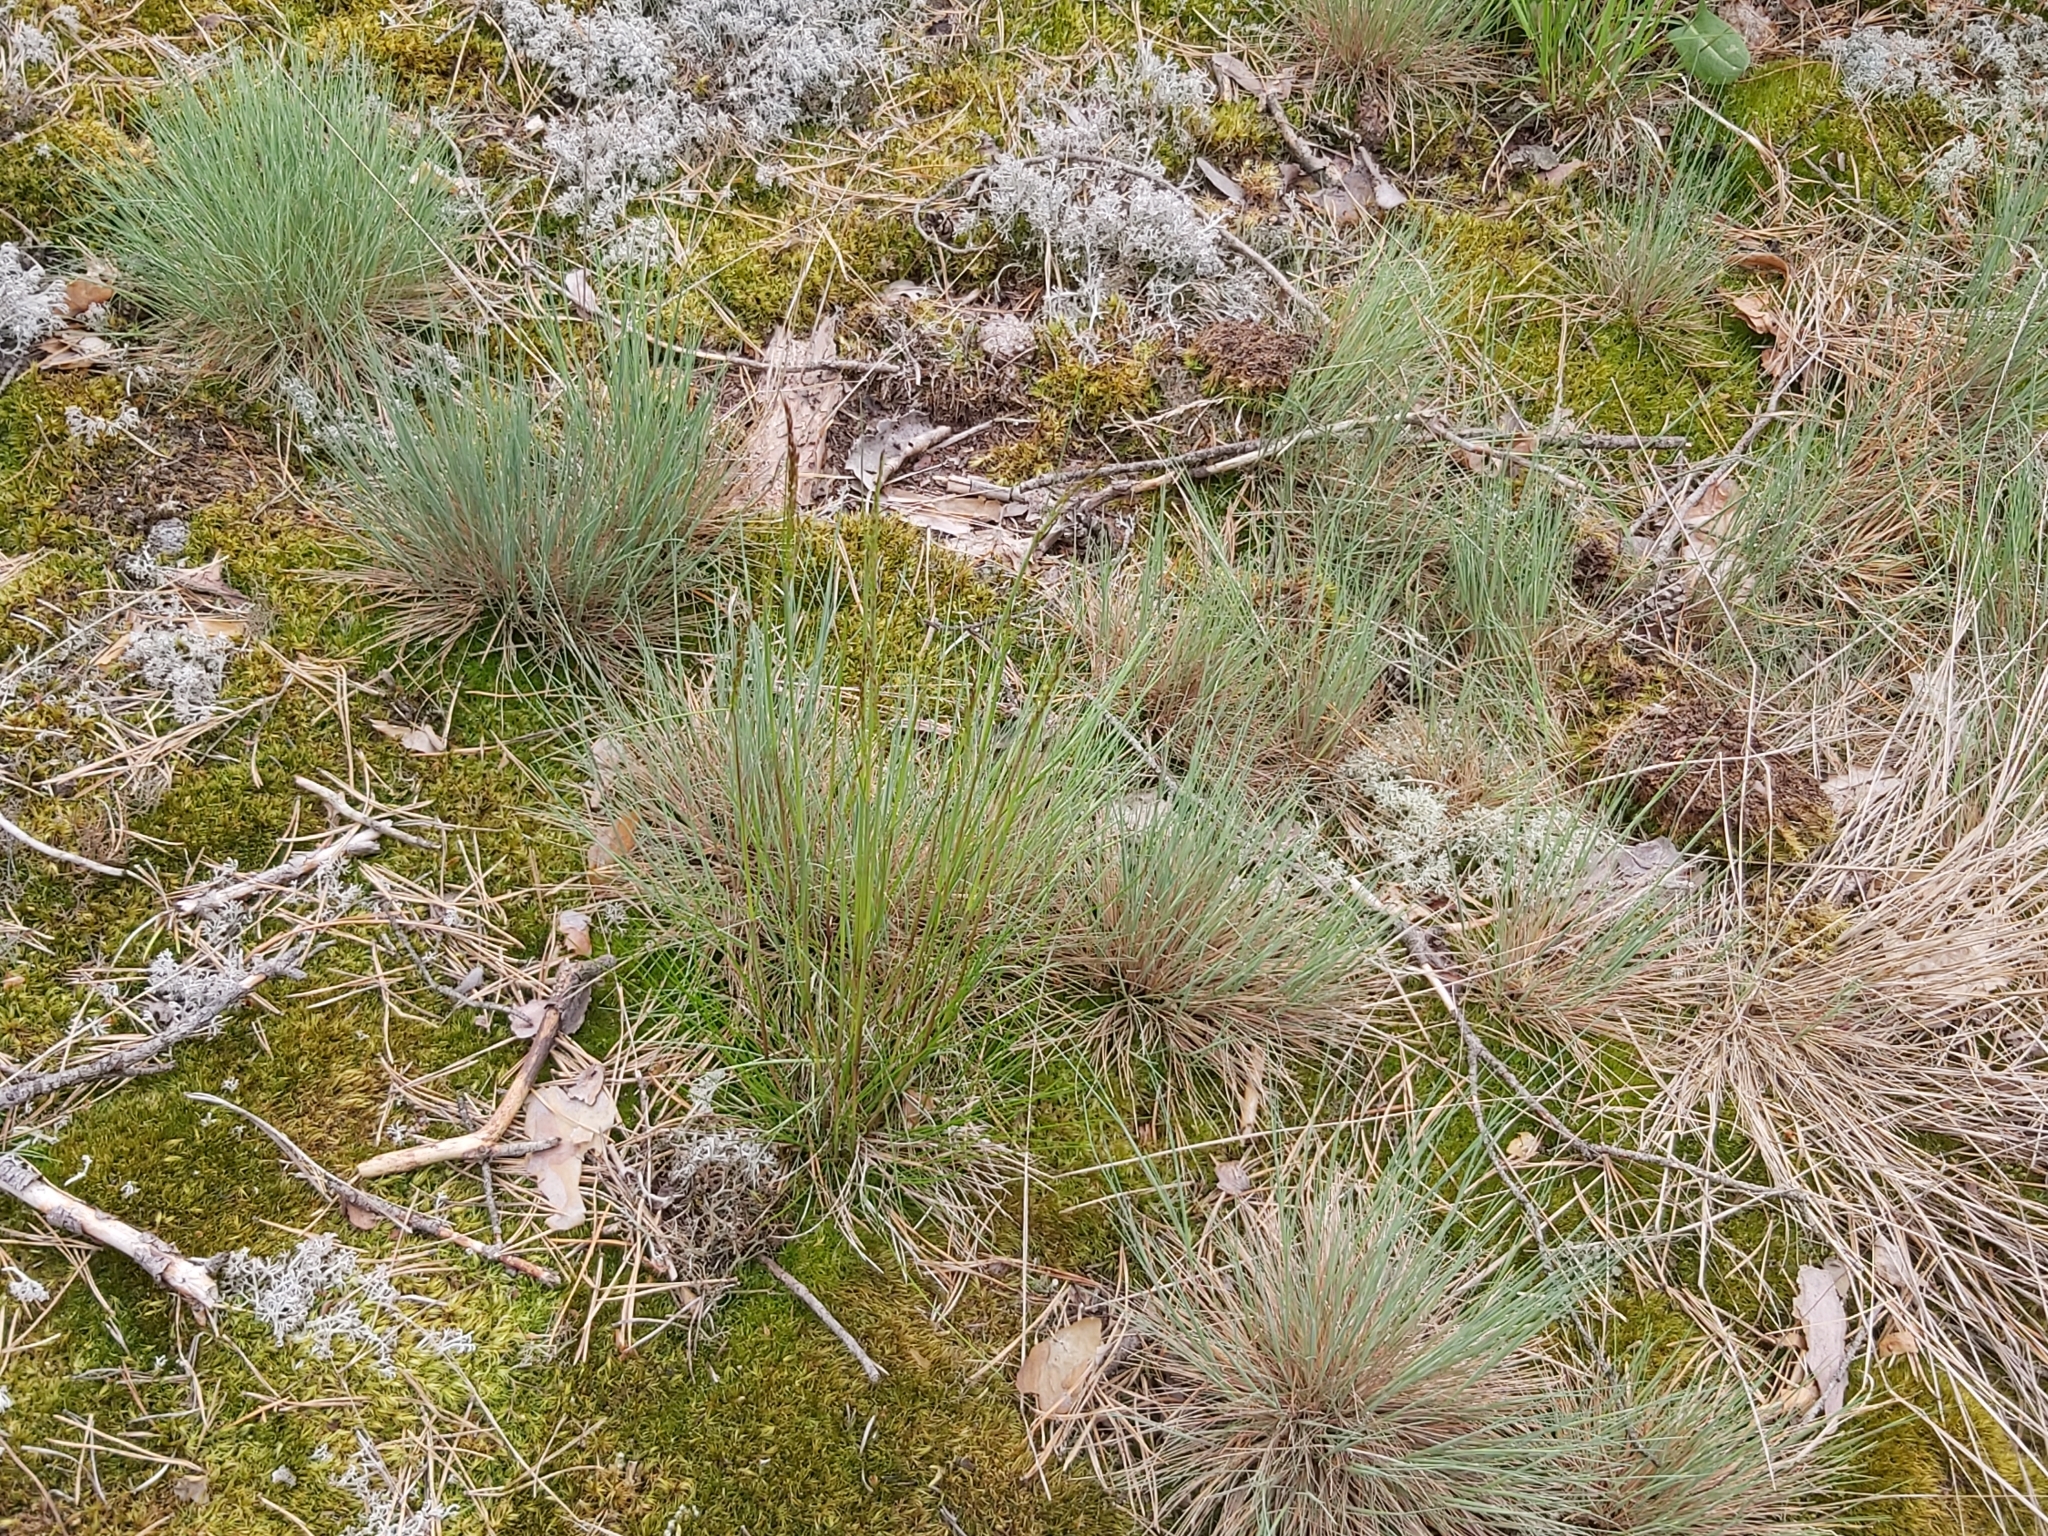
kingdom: Plantae
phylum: Tracheophyta
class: Liliopsida
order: Poales
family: Poaceae
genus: Corynephorus
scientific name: Corynephorus canescens
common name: Grey hair-grass
